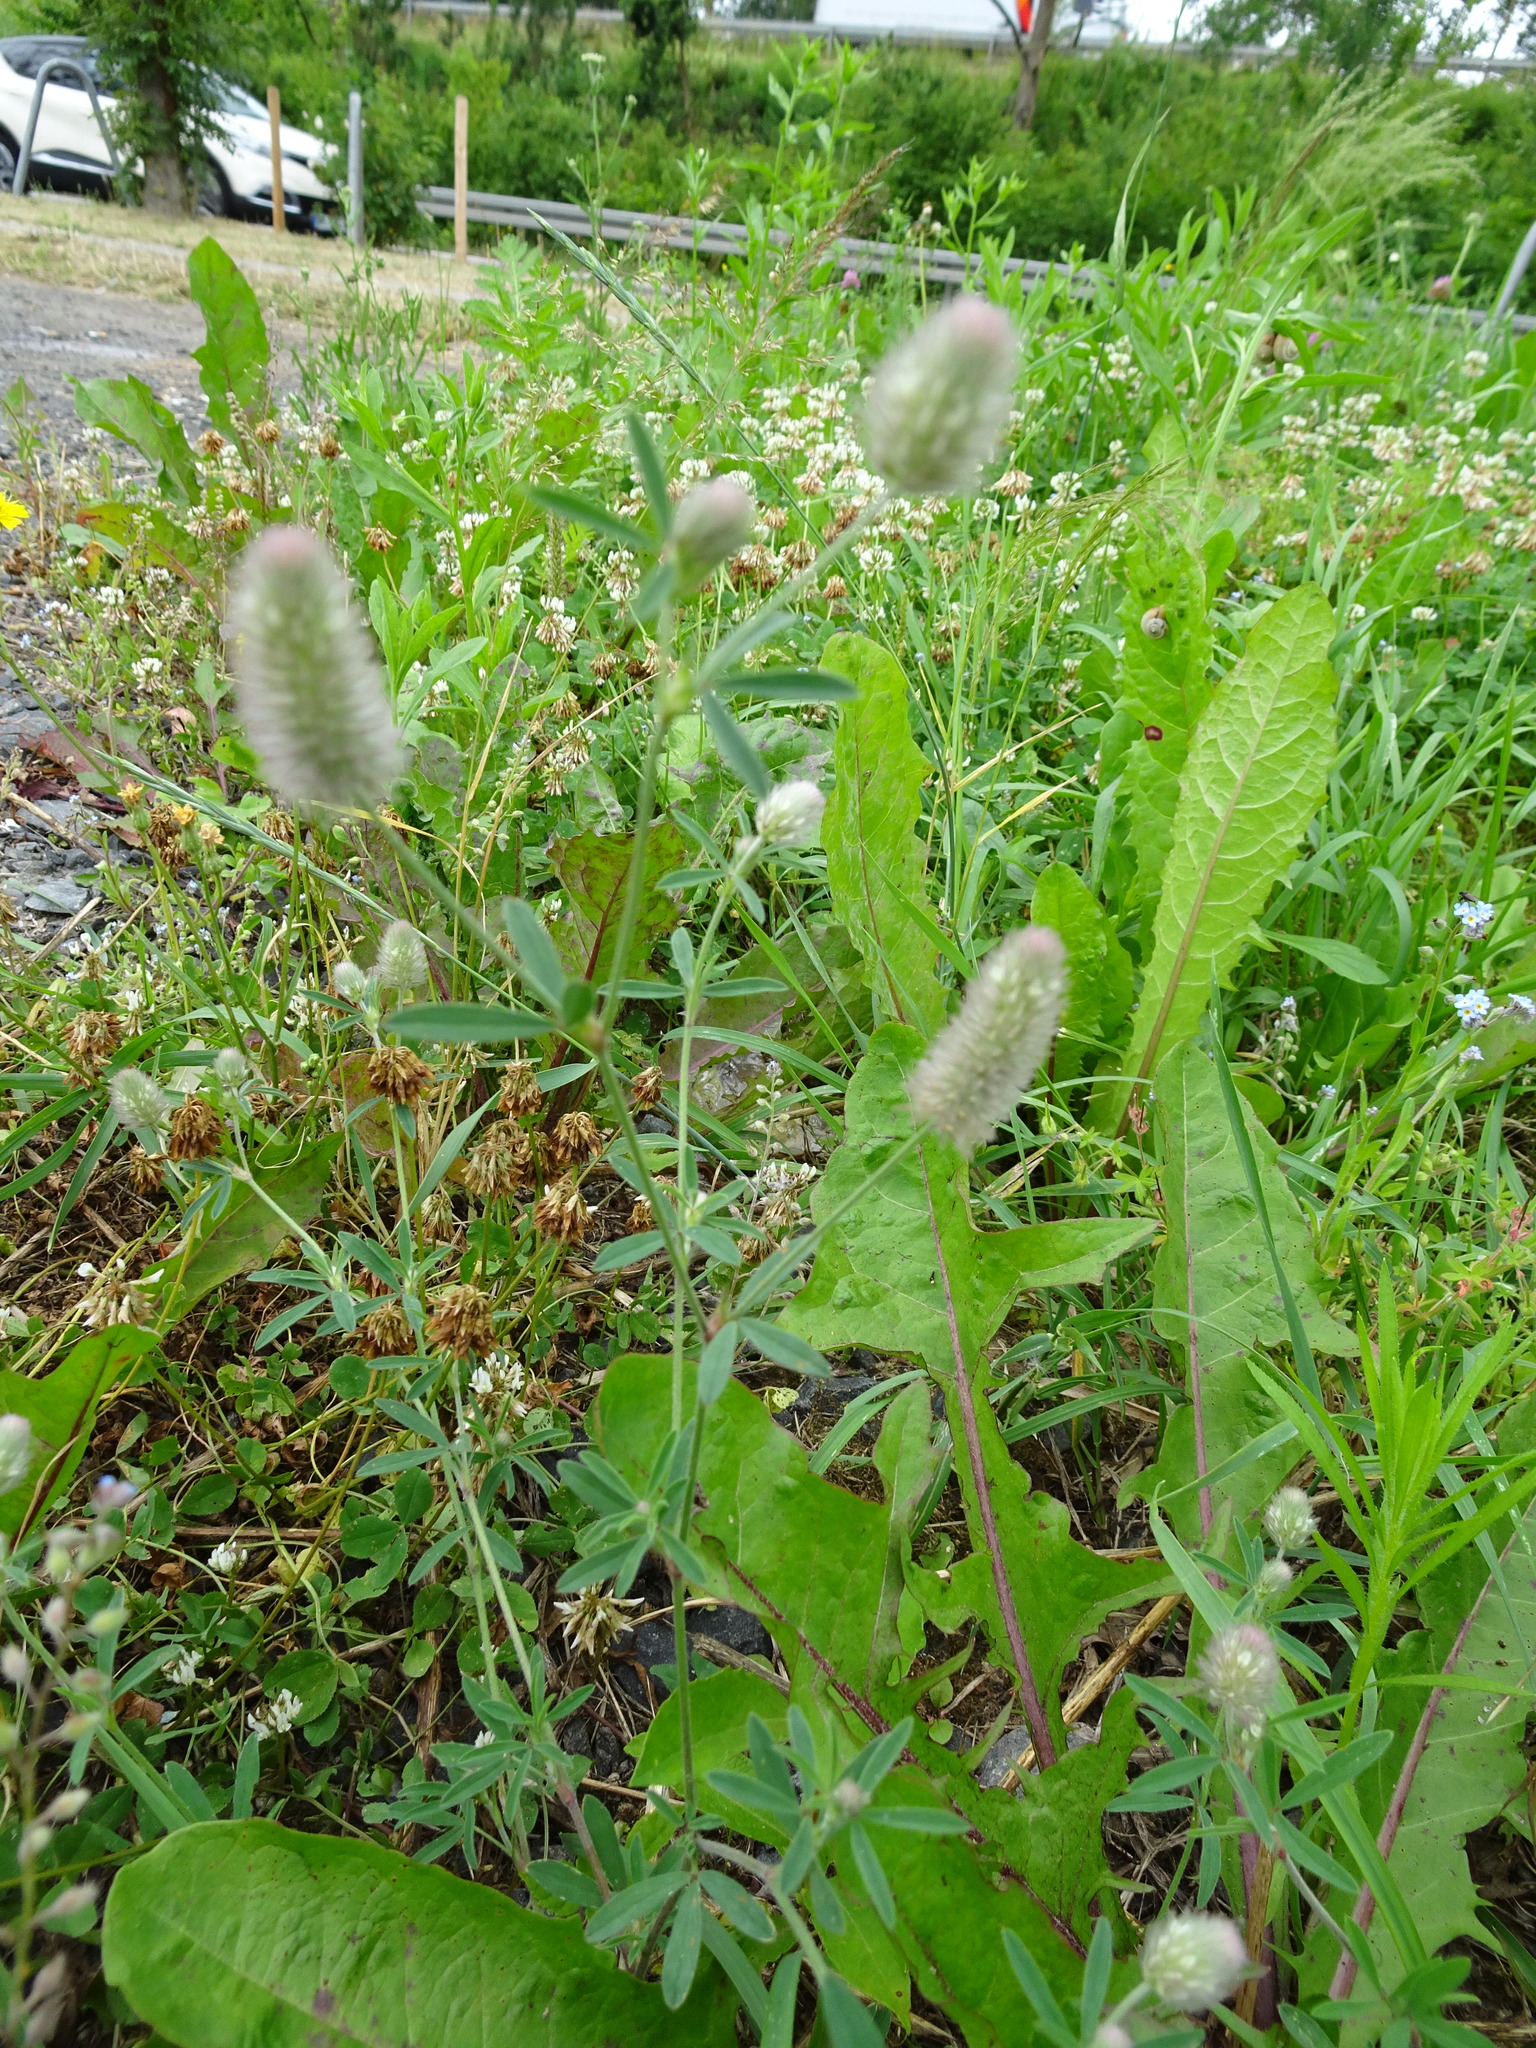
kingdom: Plantae
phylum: Tracheophyta
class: Magnoliopsida
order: Fabales
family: Fabaceae
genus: Trifolium
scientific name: Trifolium arvense
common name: Hare's-foot clover
